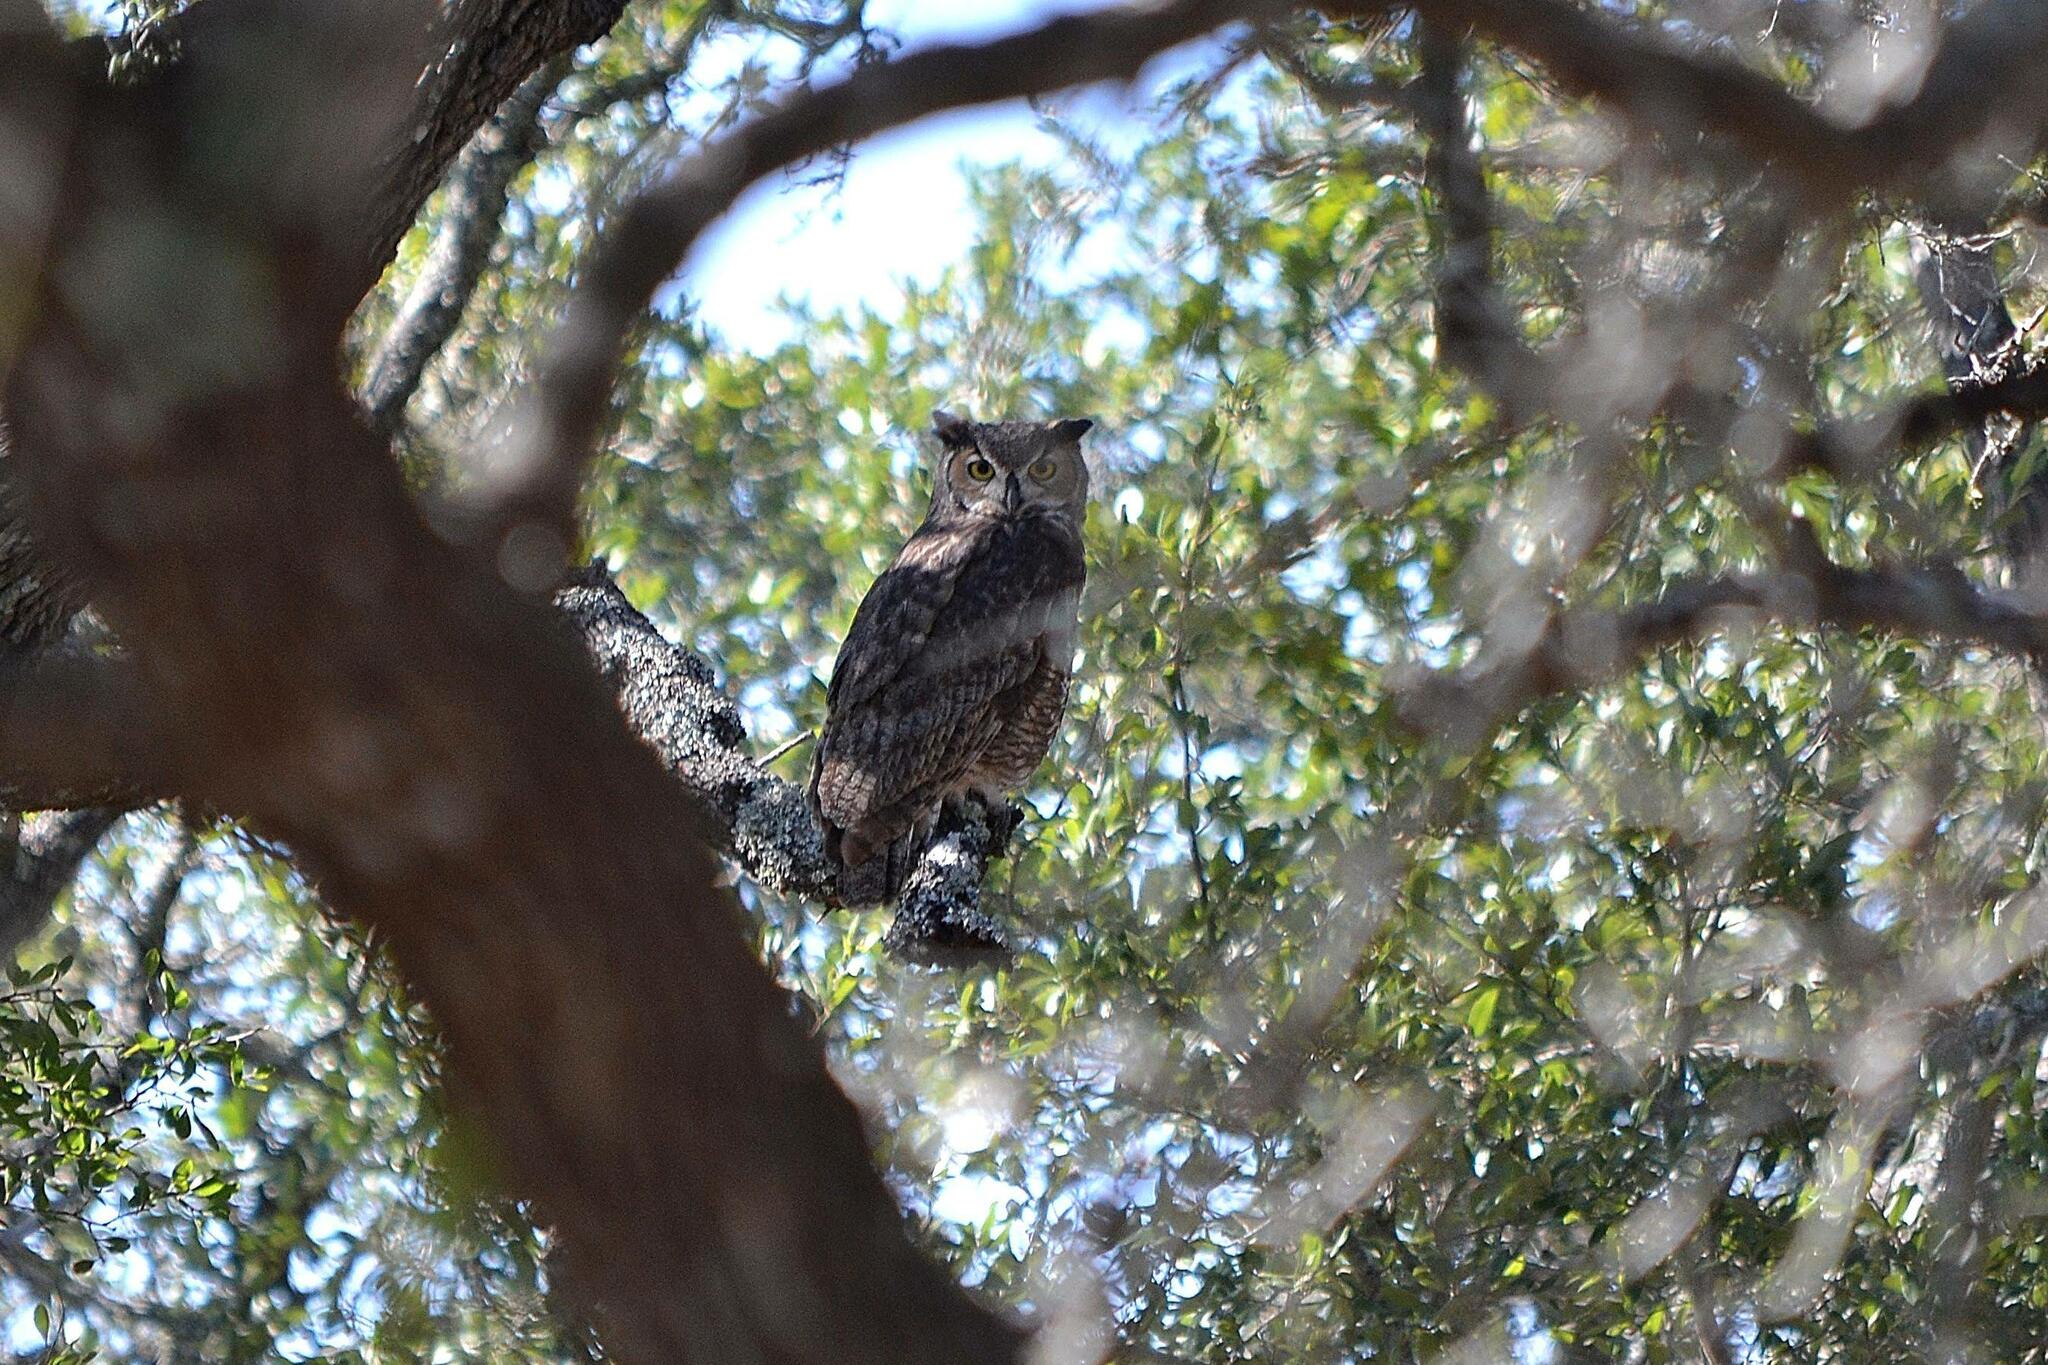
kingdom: Animalia
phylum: Chordata
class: Aves
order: Strigiformes
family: Strigidae
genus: Bubo
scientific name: Bubo virginianus
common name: Great horned owl
